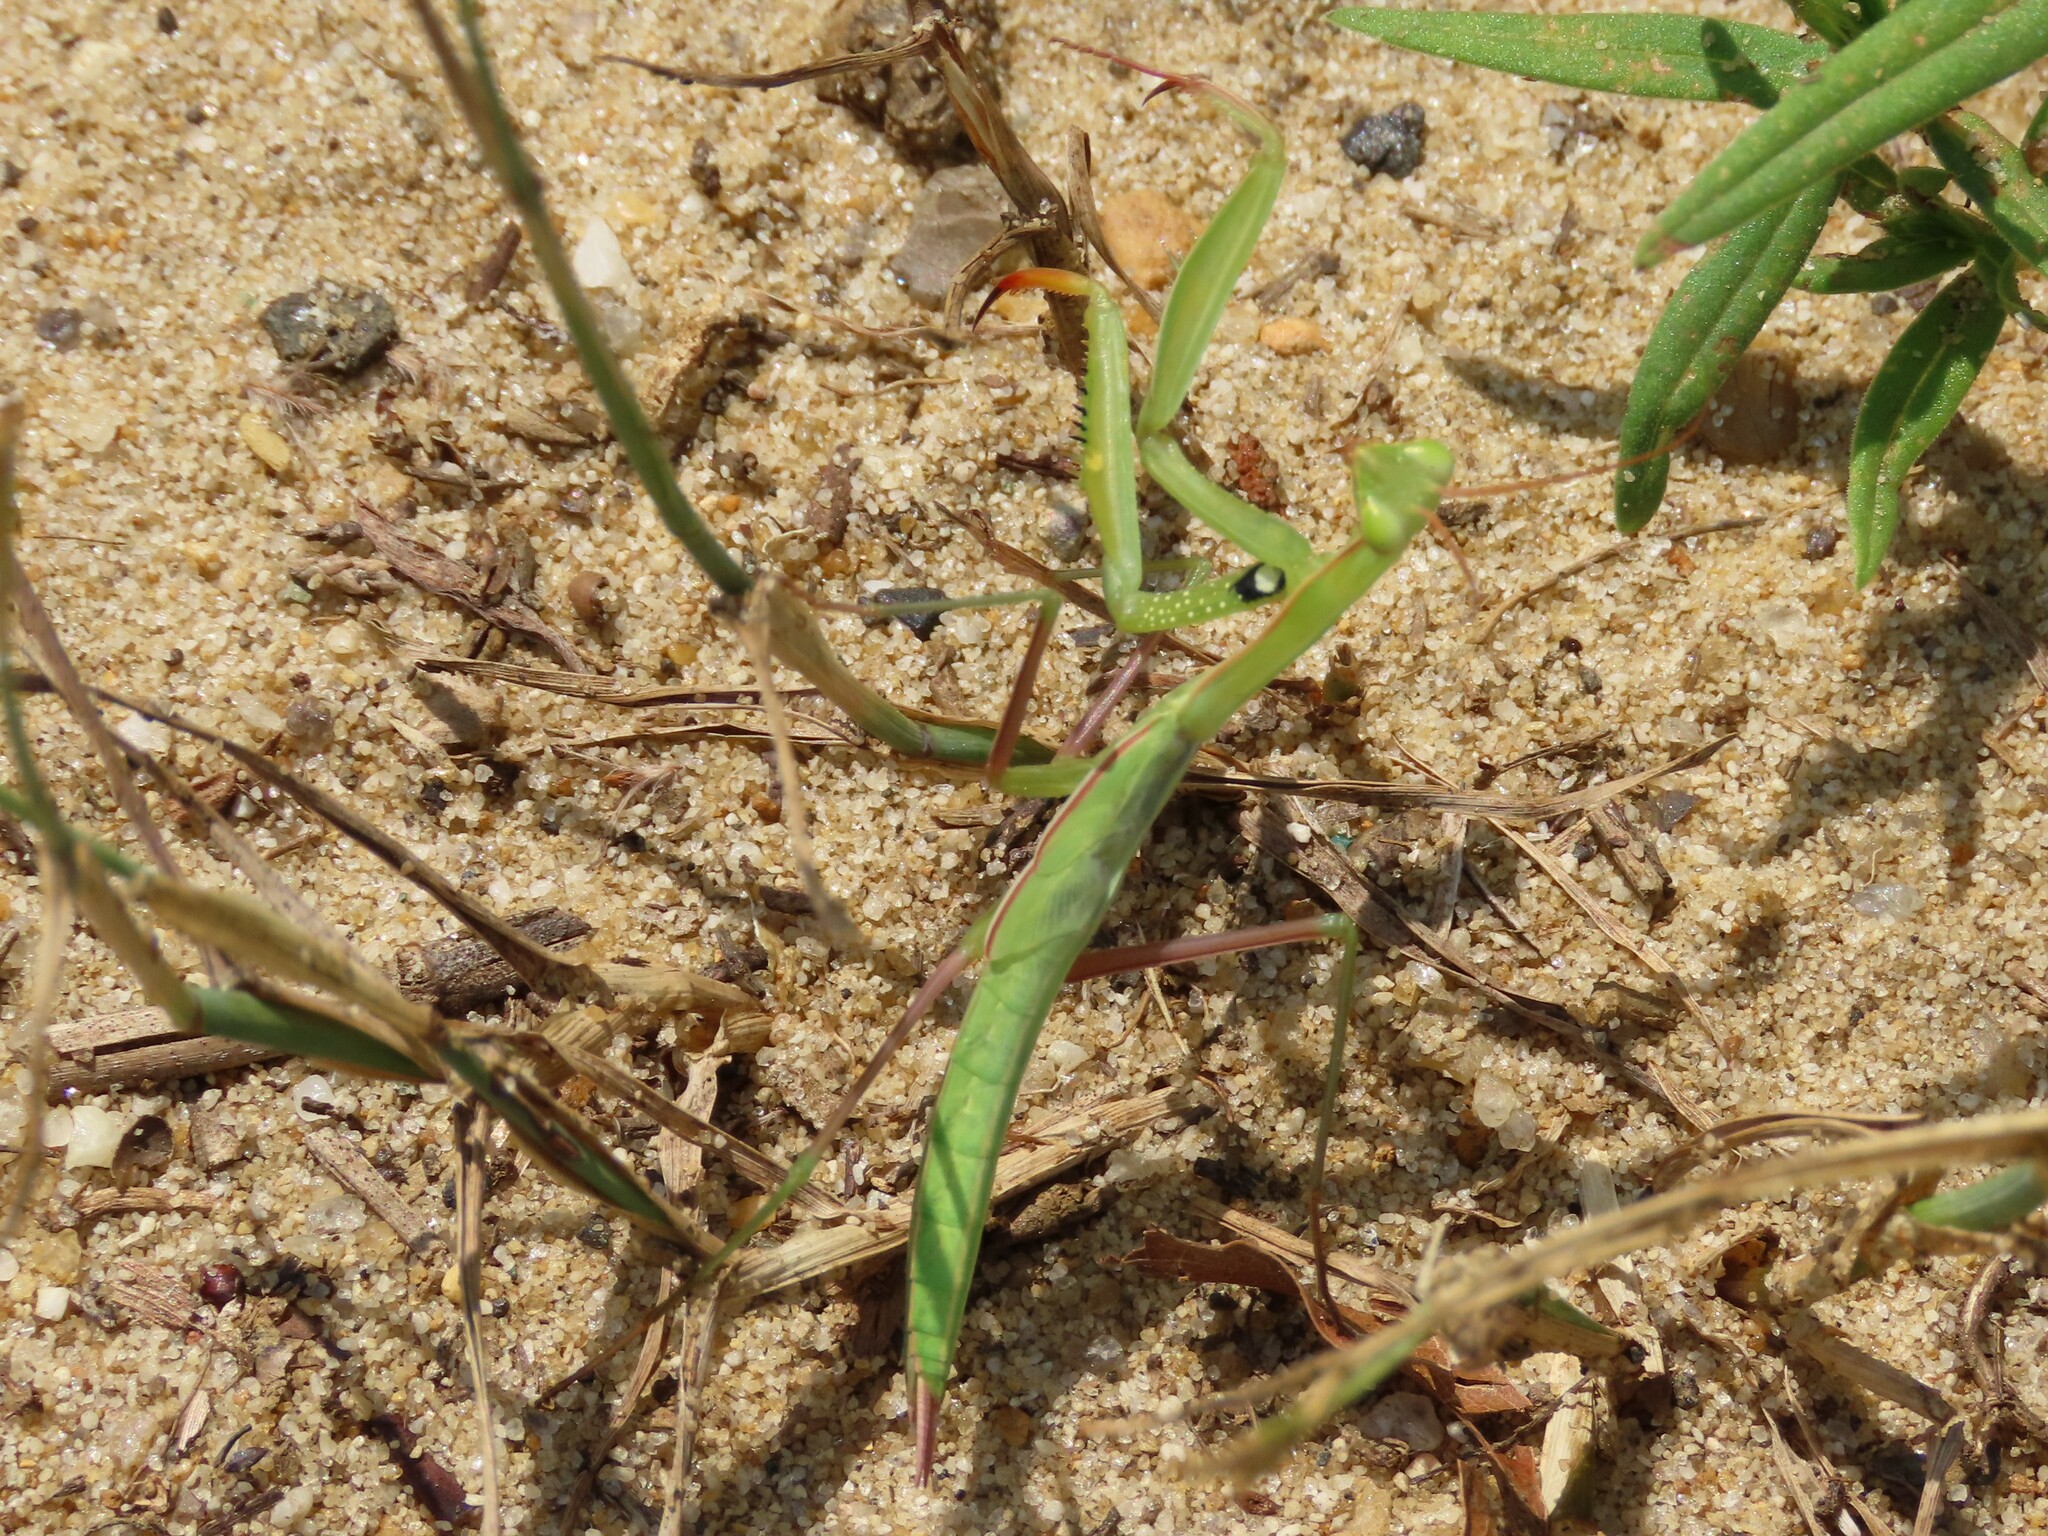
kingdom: Animalia
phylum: Arthropoda
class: Insecta
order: Mantodea
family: Mantidae
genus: Mantis
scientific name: Mantis religiosa
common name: Praying mantis
